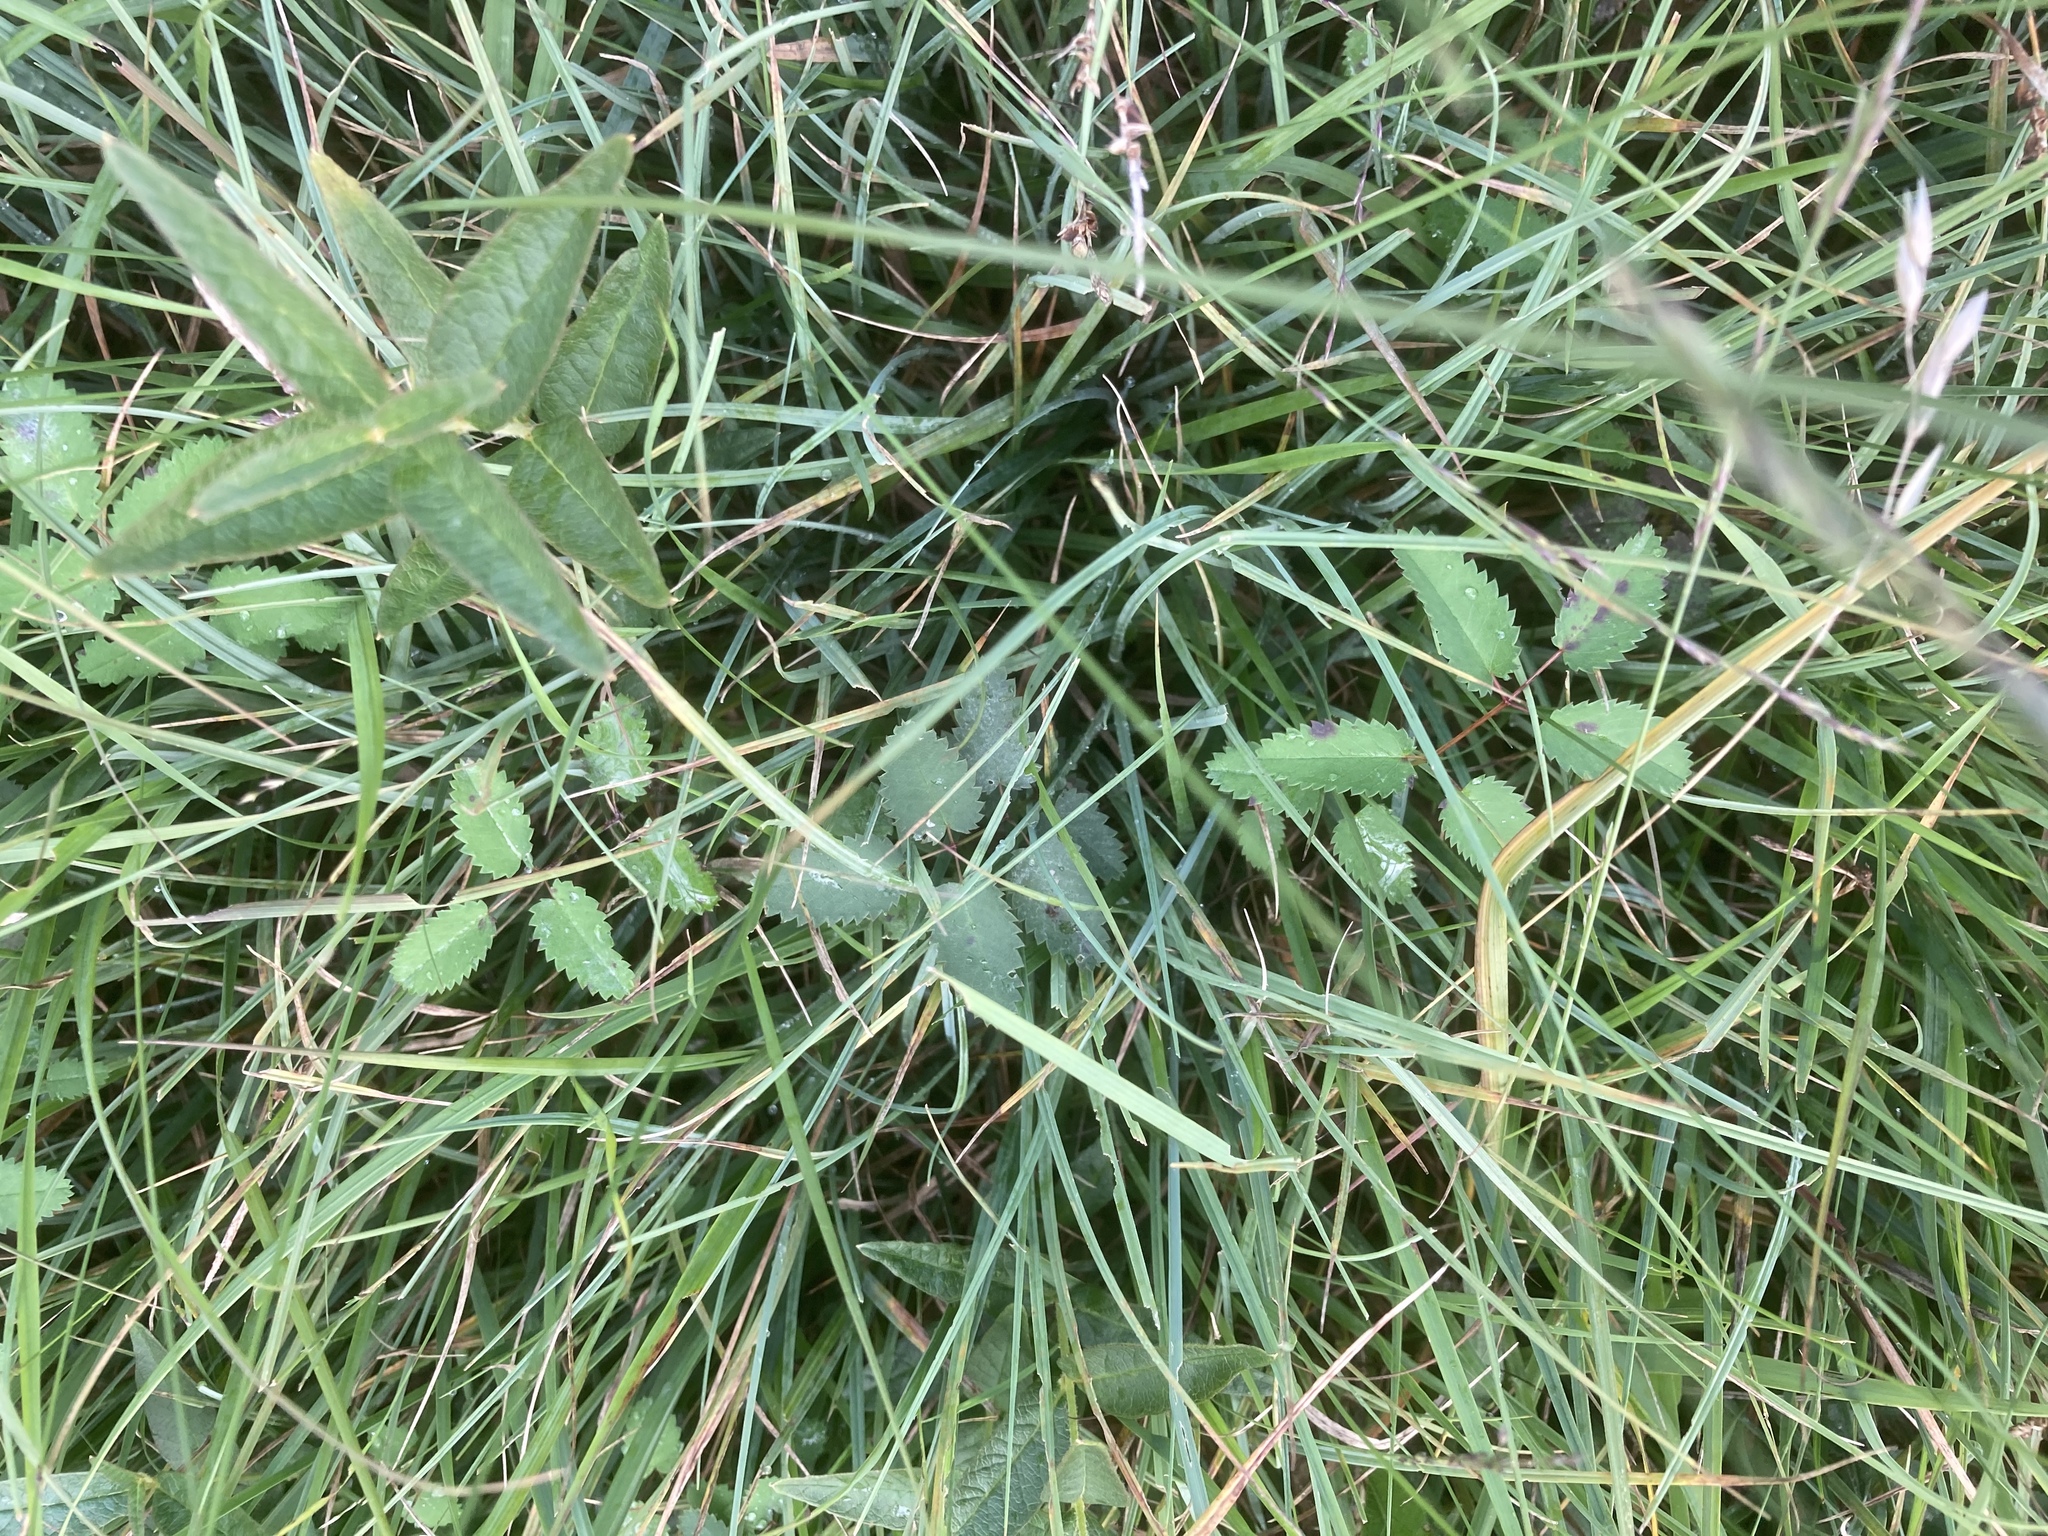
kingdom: Plantae
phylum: Tracheophyta
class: Magnoliopsida
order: Rosales
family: Rosaceae
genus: Sanguisorba
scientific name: Sanguisorba officinalis
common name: Great burnet
